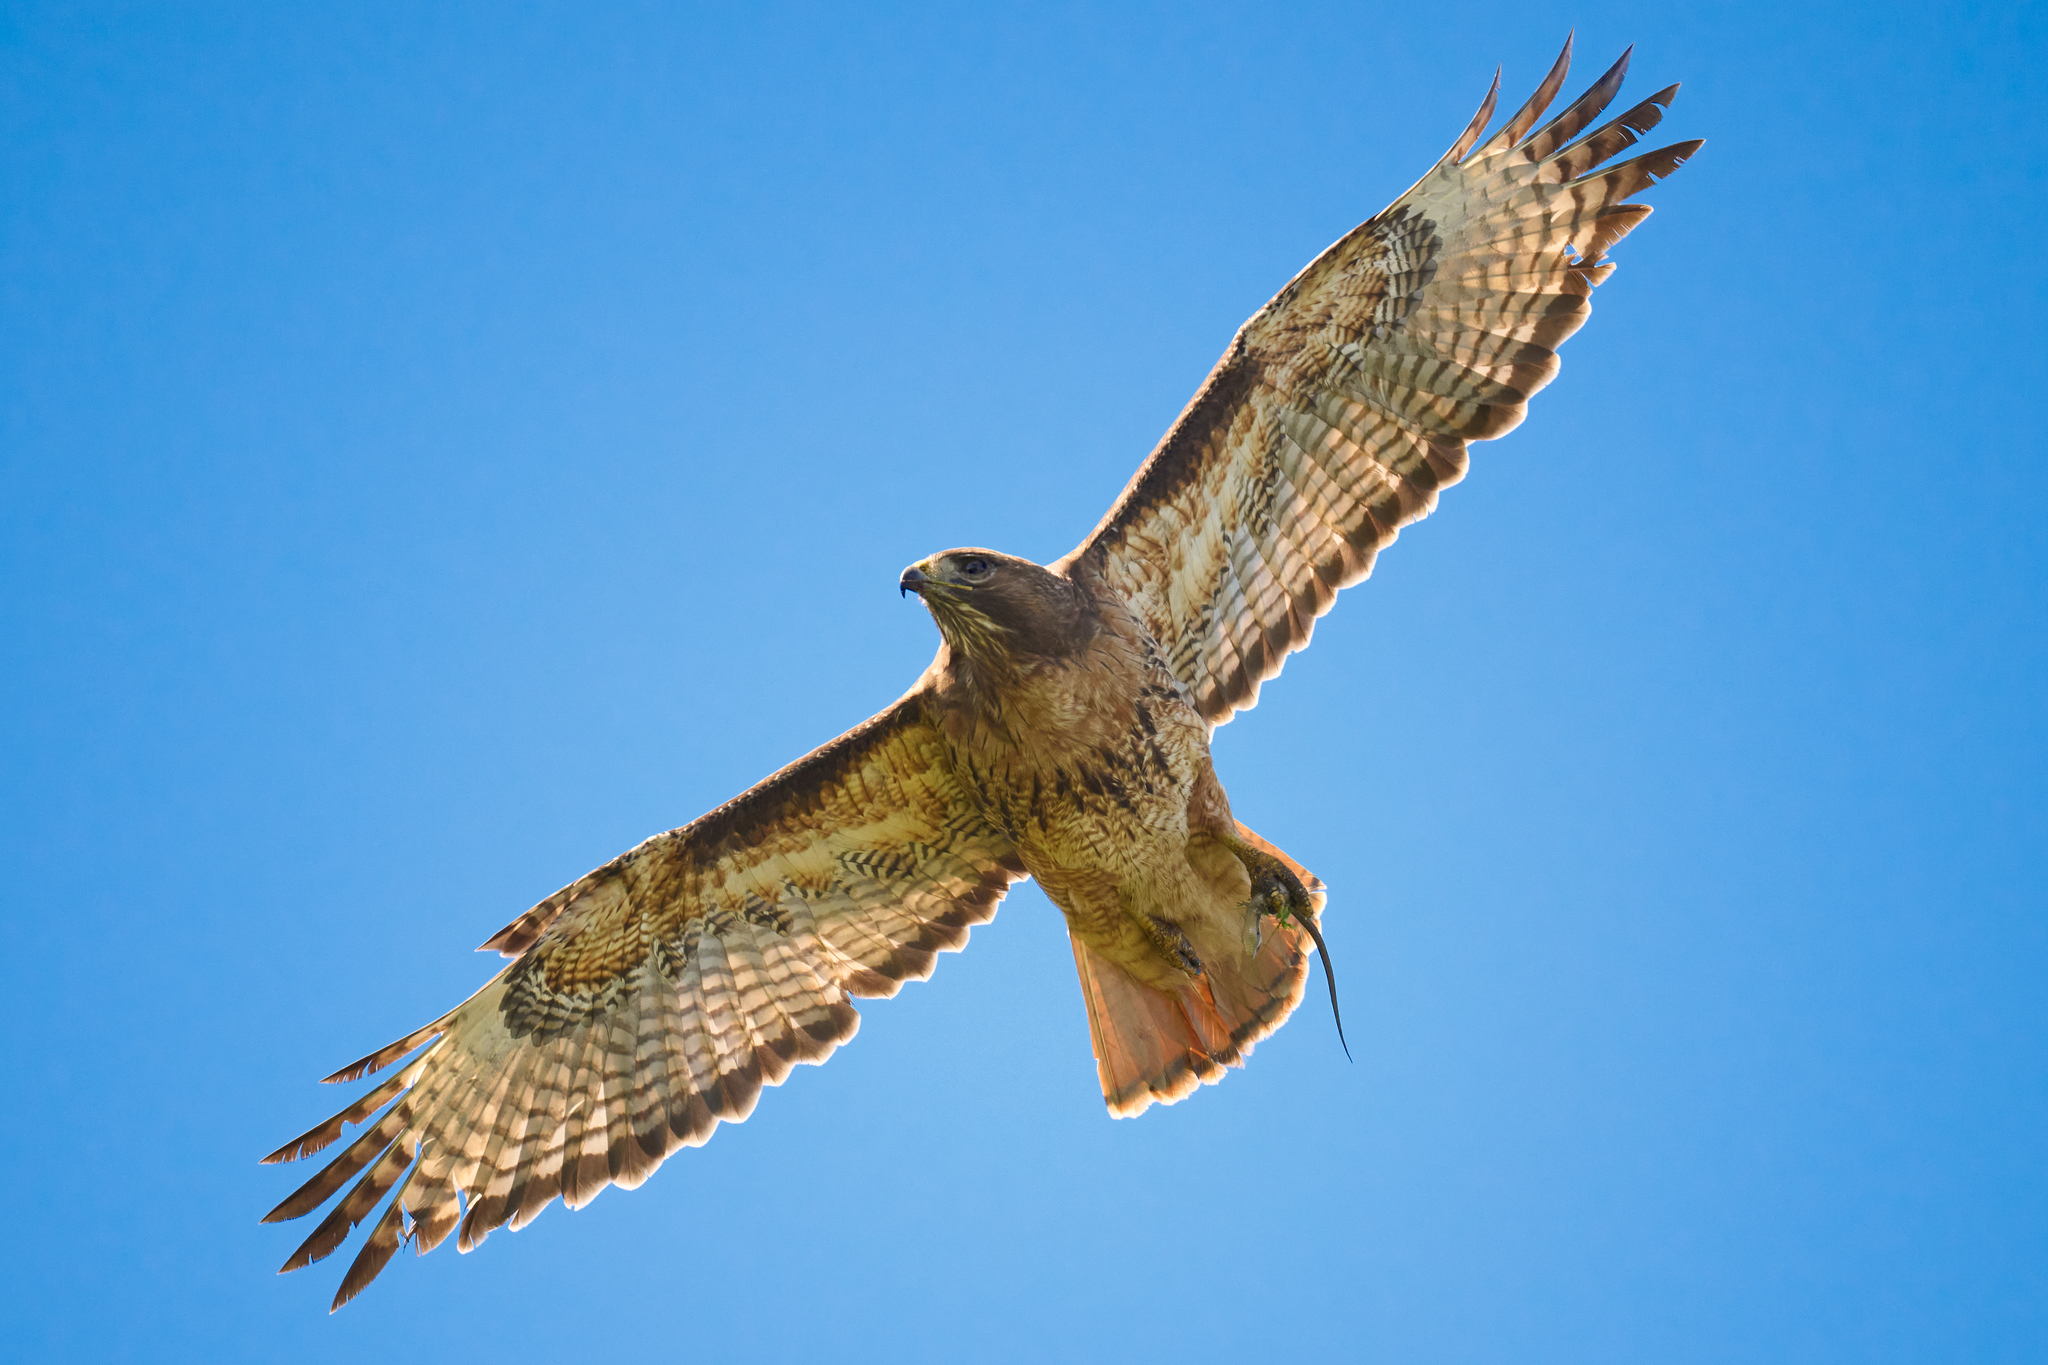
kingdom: Animalia
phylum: Chordata
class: Aves
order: Accipitriformes
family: Accipitridae
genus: Buteo
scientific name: Buteo jamaicensis
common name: Red-tailed hawk
